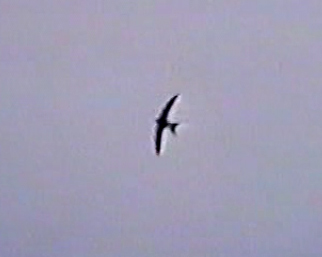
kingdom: Animalia
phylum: Chordata
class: Aves
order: Apodiformes
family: Apodidae
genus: Apus
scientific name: Apus apus
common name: Common swift
